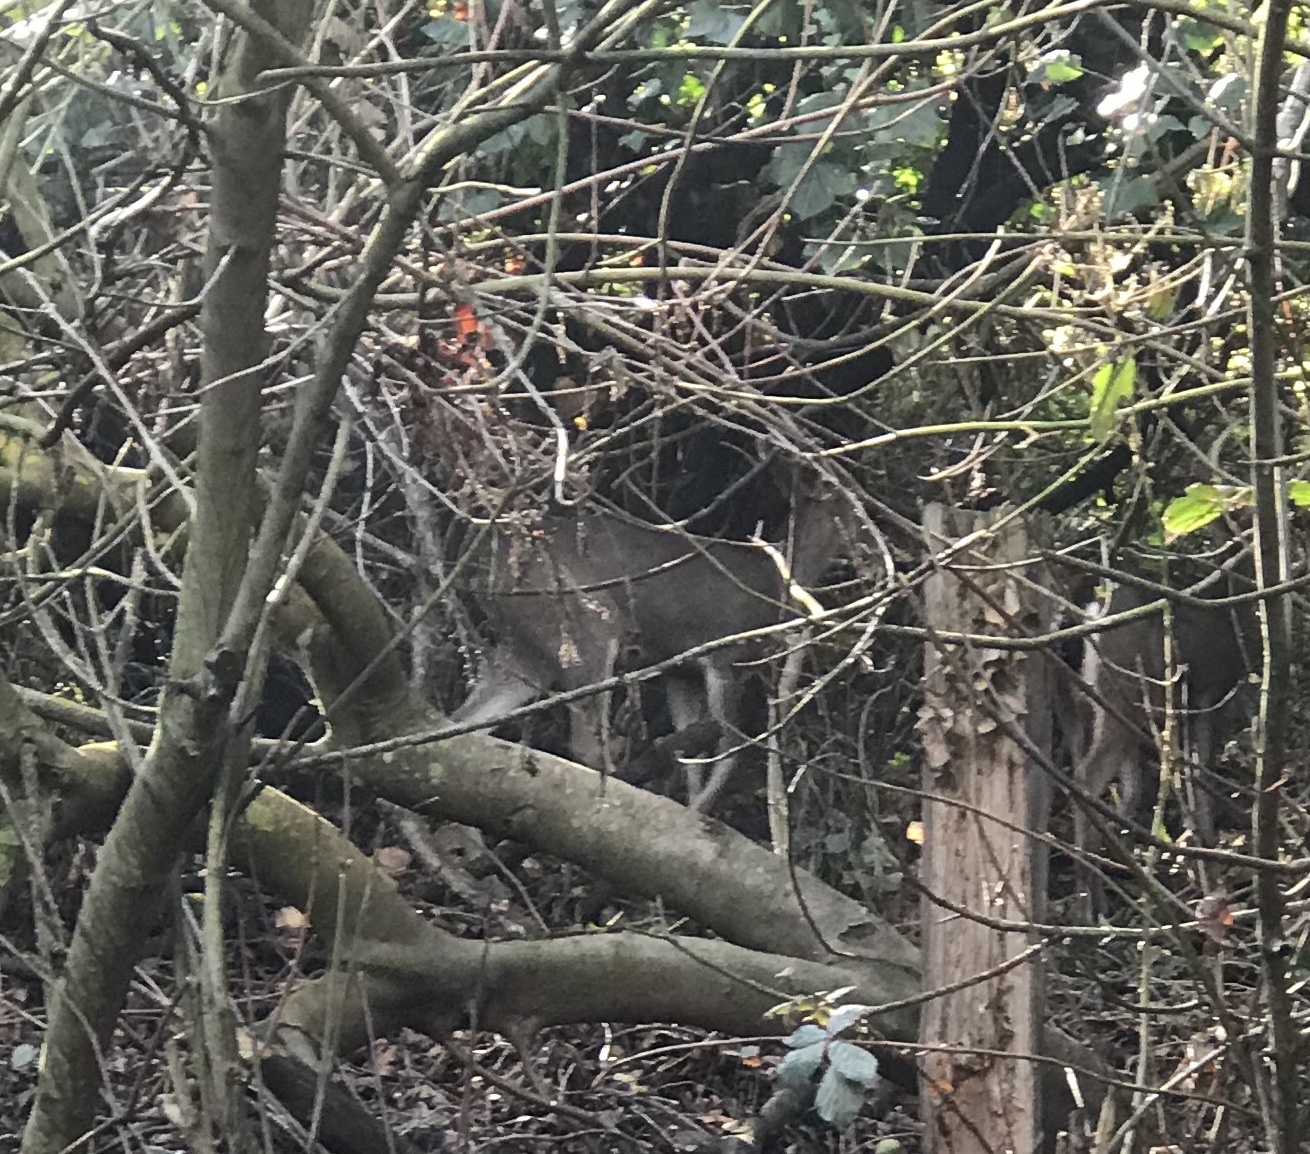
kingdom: Animalia
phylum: Chordata
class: Mammalia
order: Artiodactyla
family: Cervidae
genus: Odocoileus
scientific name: Odocoileus hemionus
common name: Mule deer
